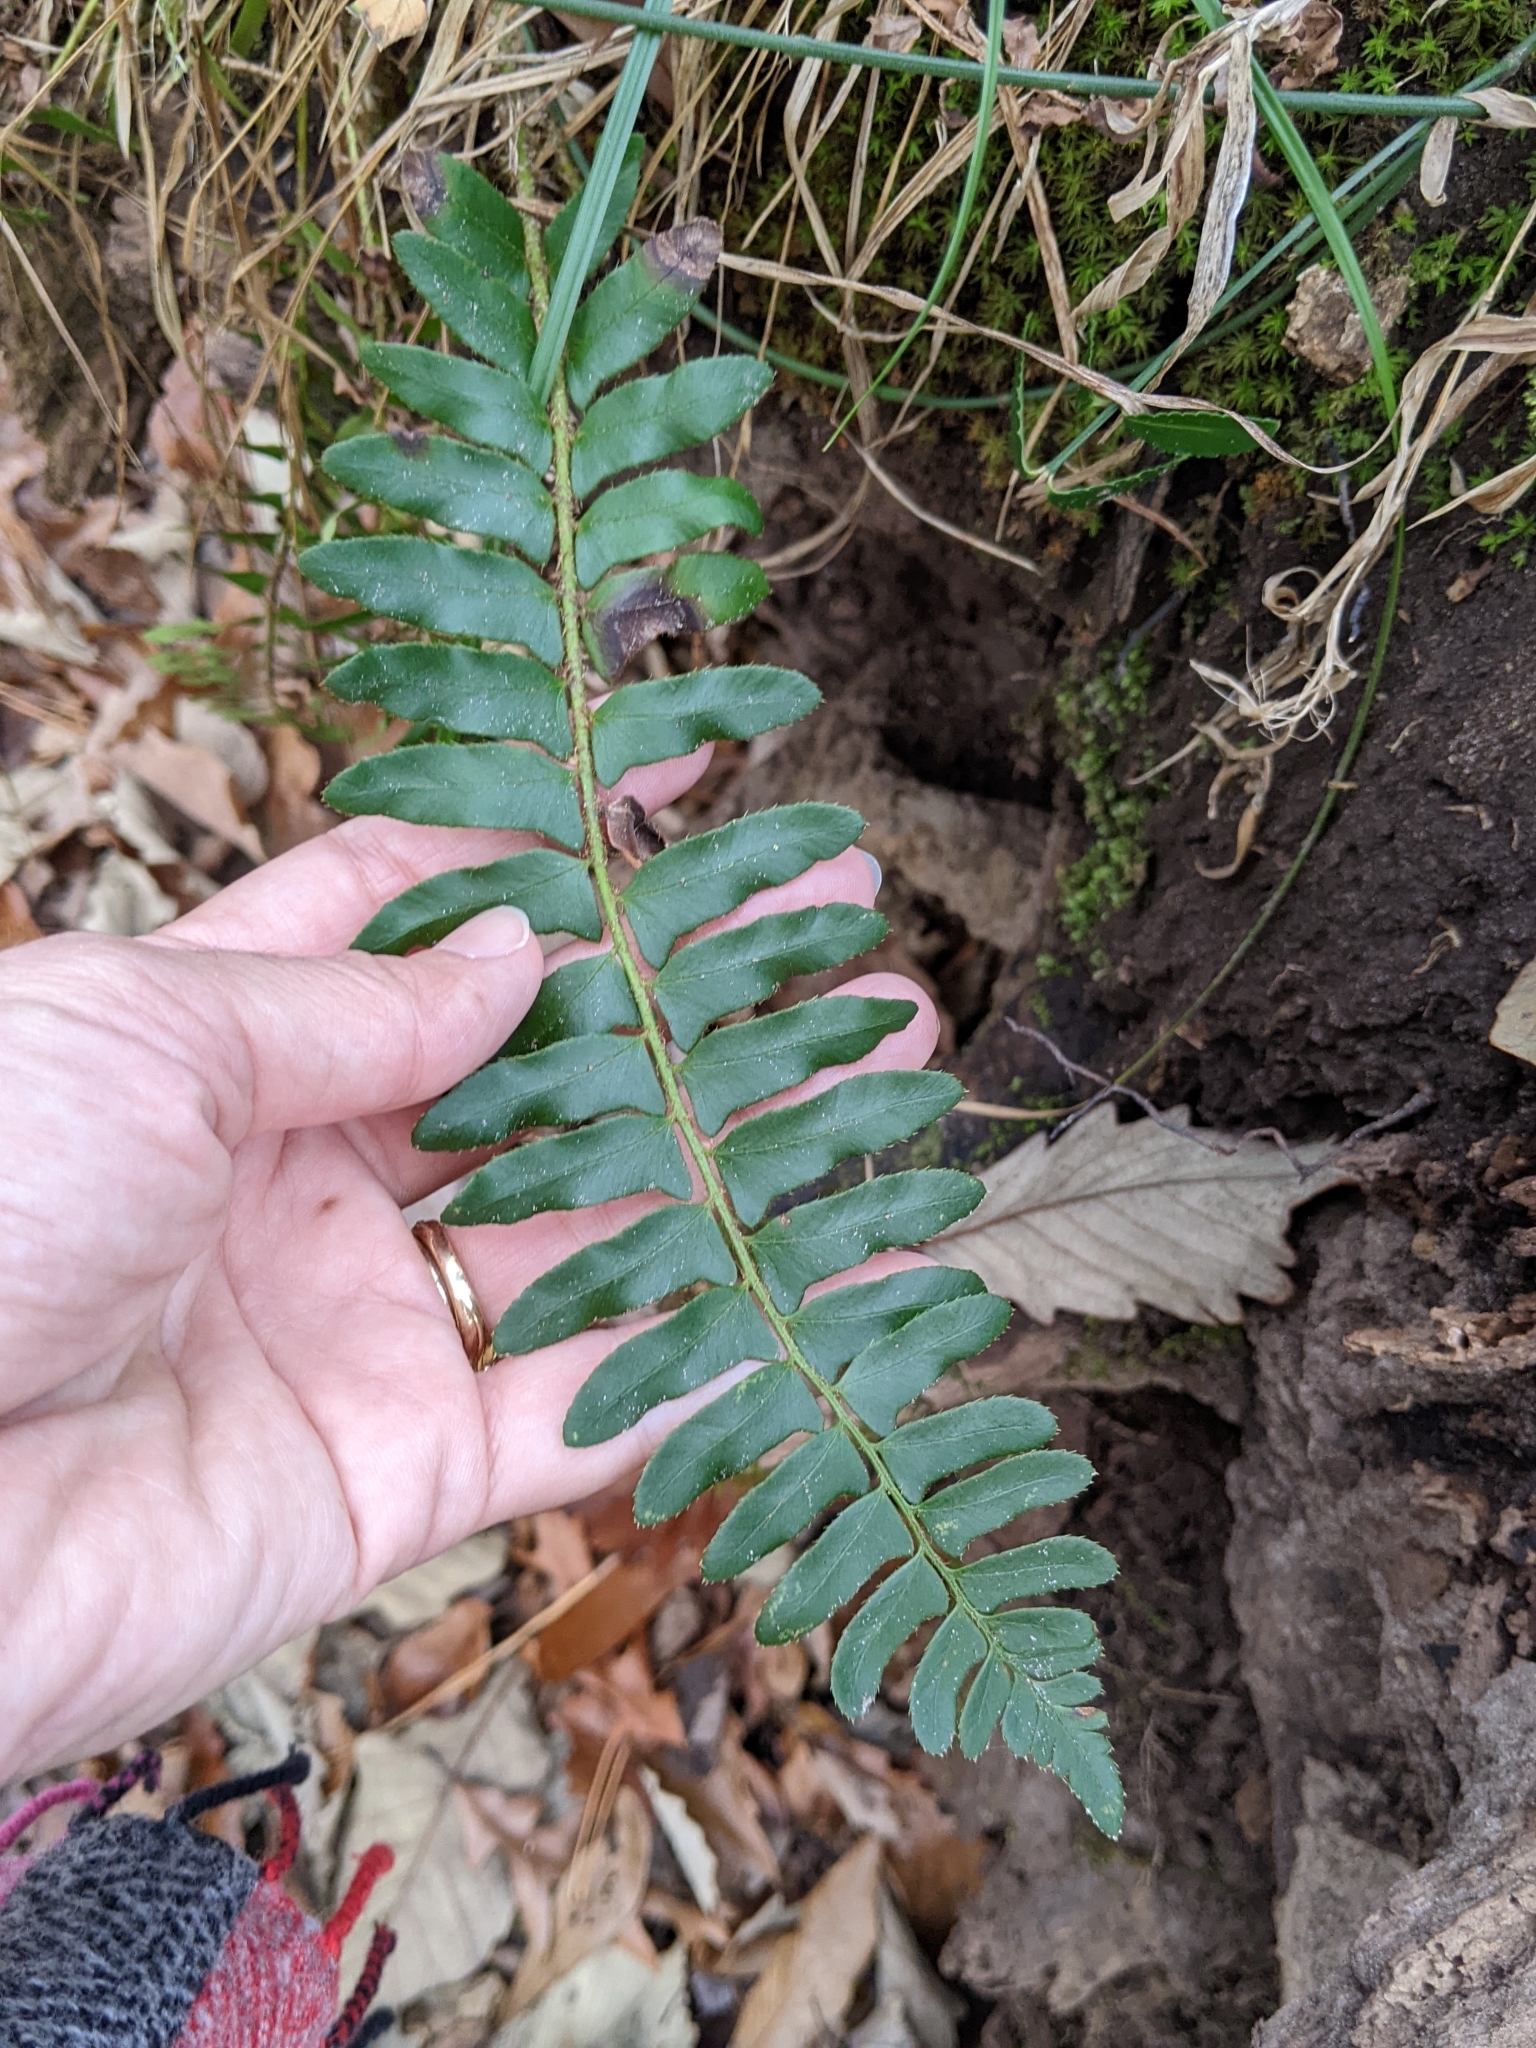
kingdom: Plantae
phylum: Tracheophyta
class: Polypodiopsida
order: Polypodiales
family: Dryopteridaceae
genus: Polystichum
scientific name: Polystichum acrostichoides
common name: Christmas fern
